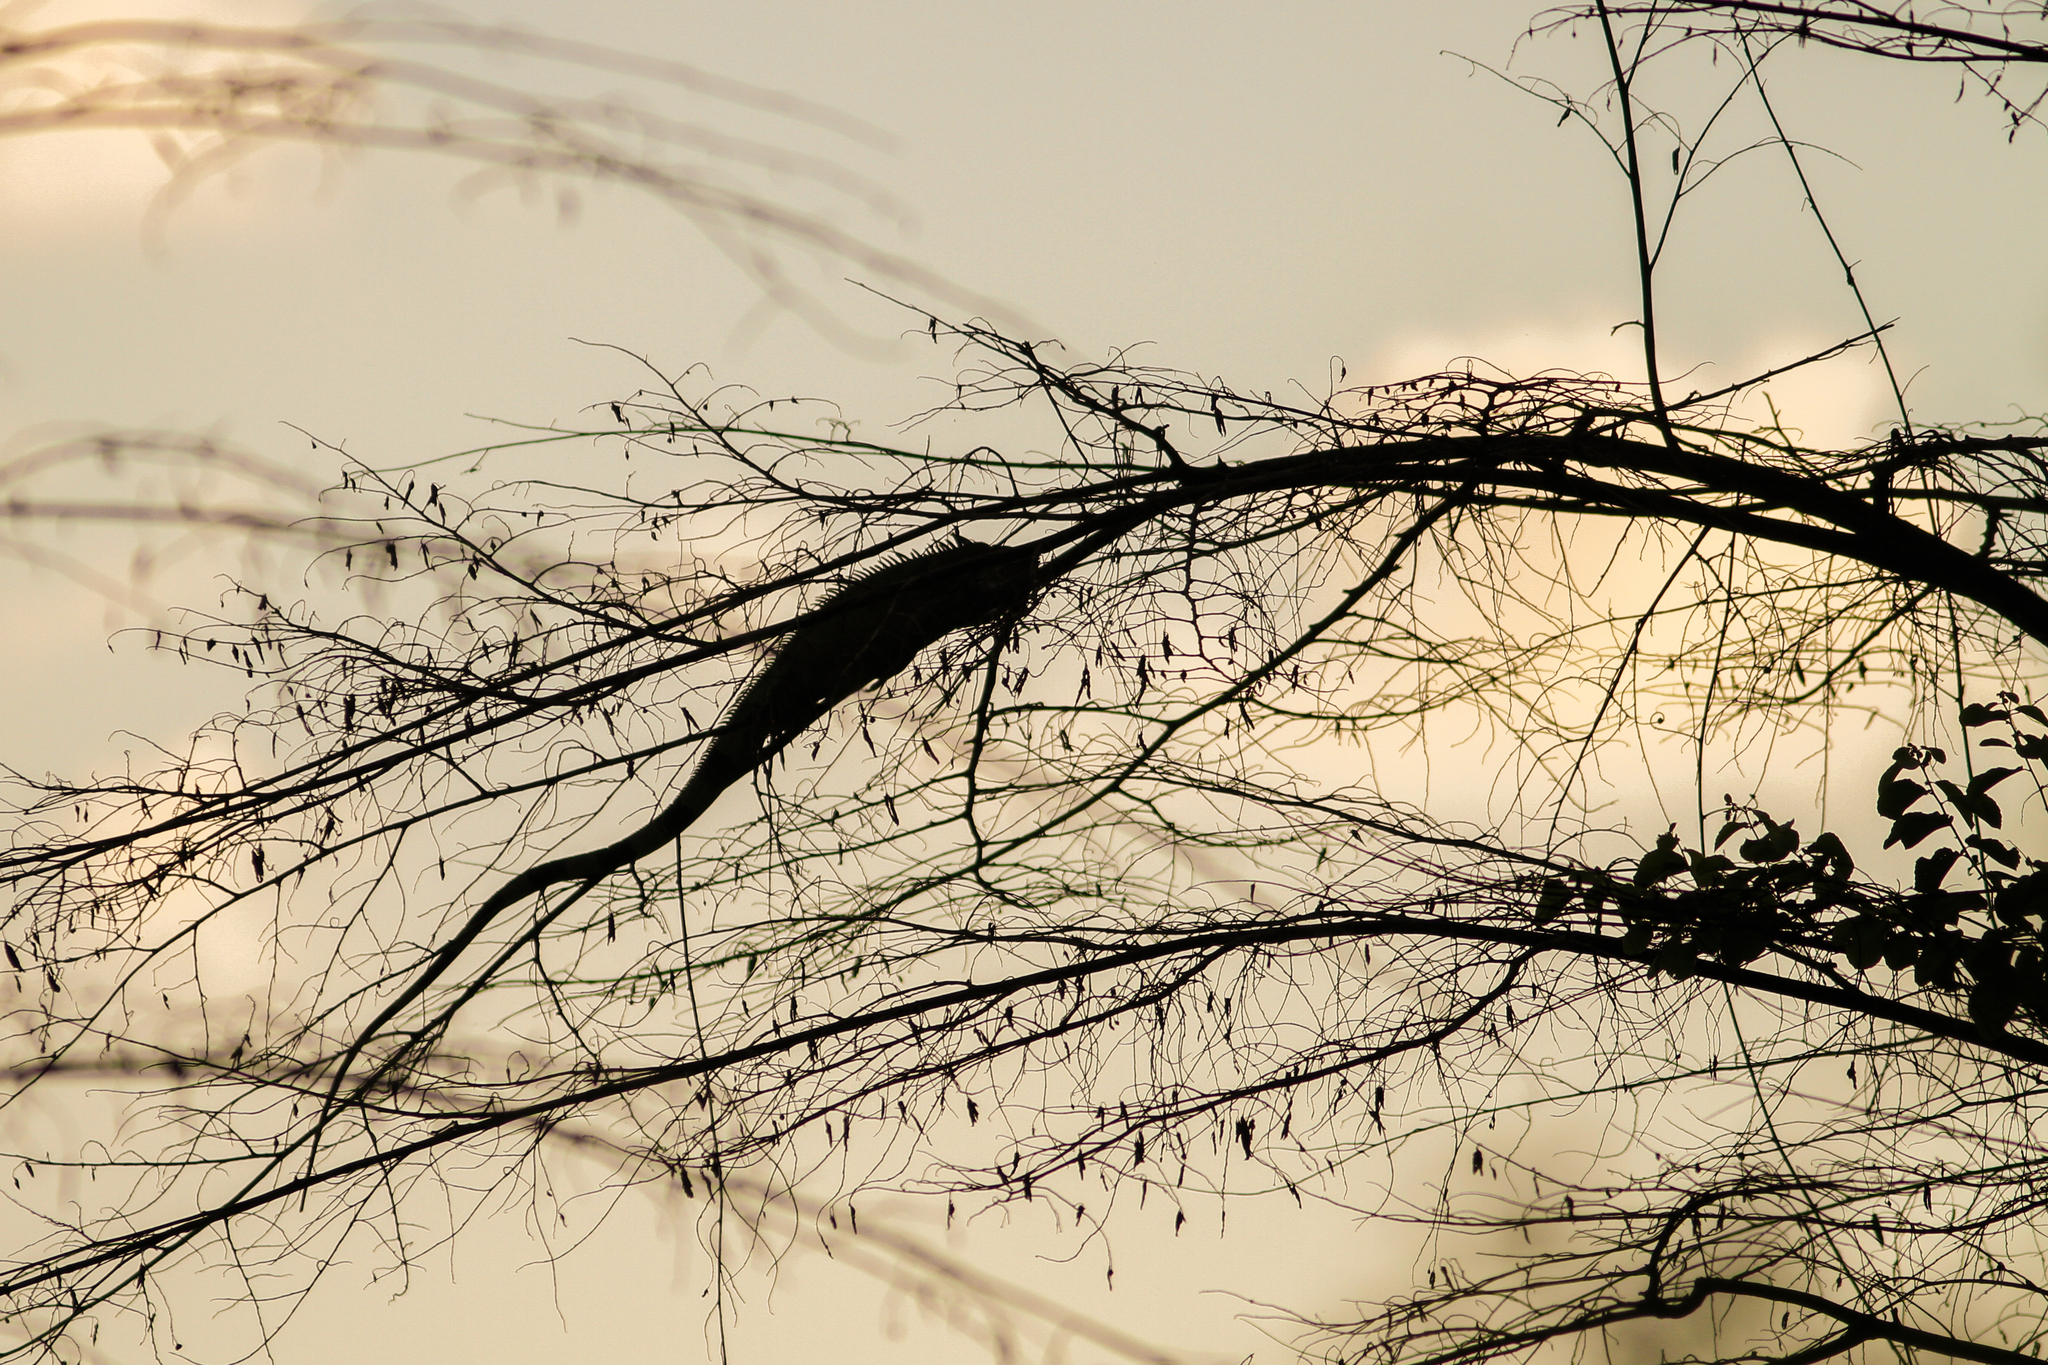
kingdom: Animalia
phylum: Chordata
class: Squamata
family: Iguanidae
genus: Iguana
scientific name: Iguana iguana
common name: Green iguana
